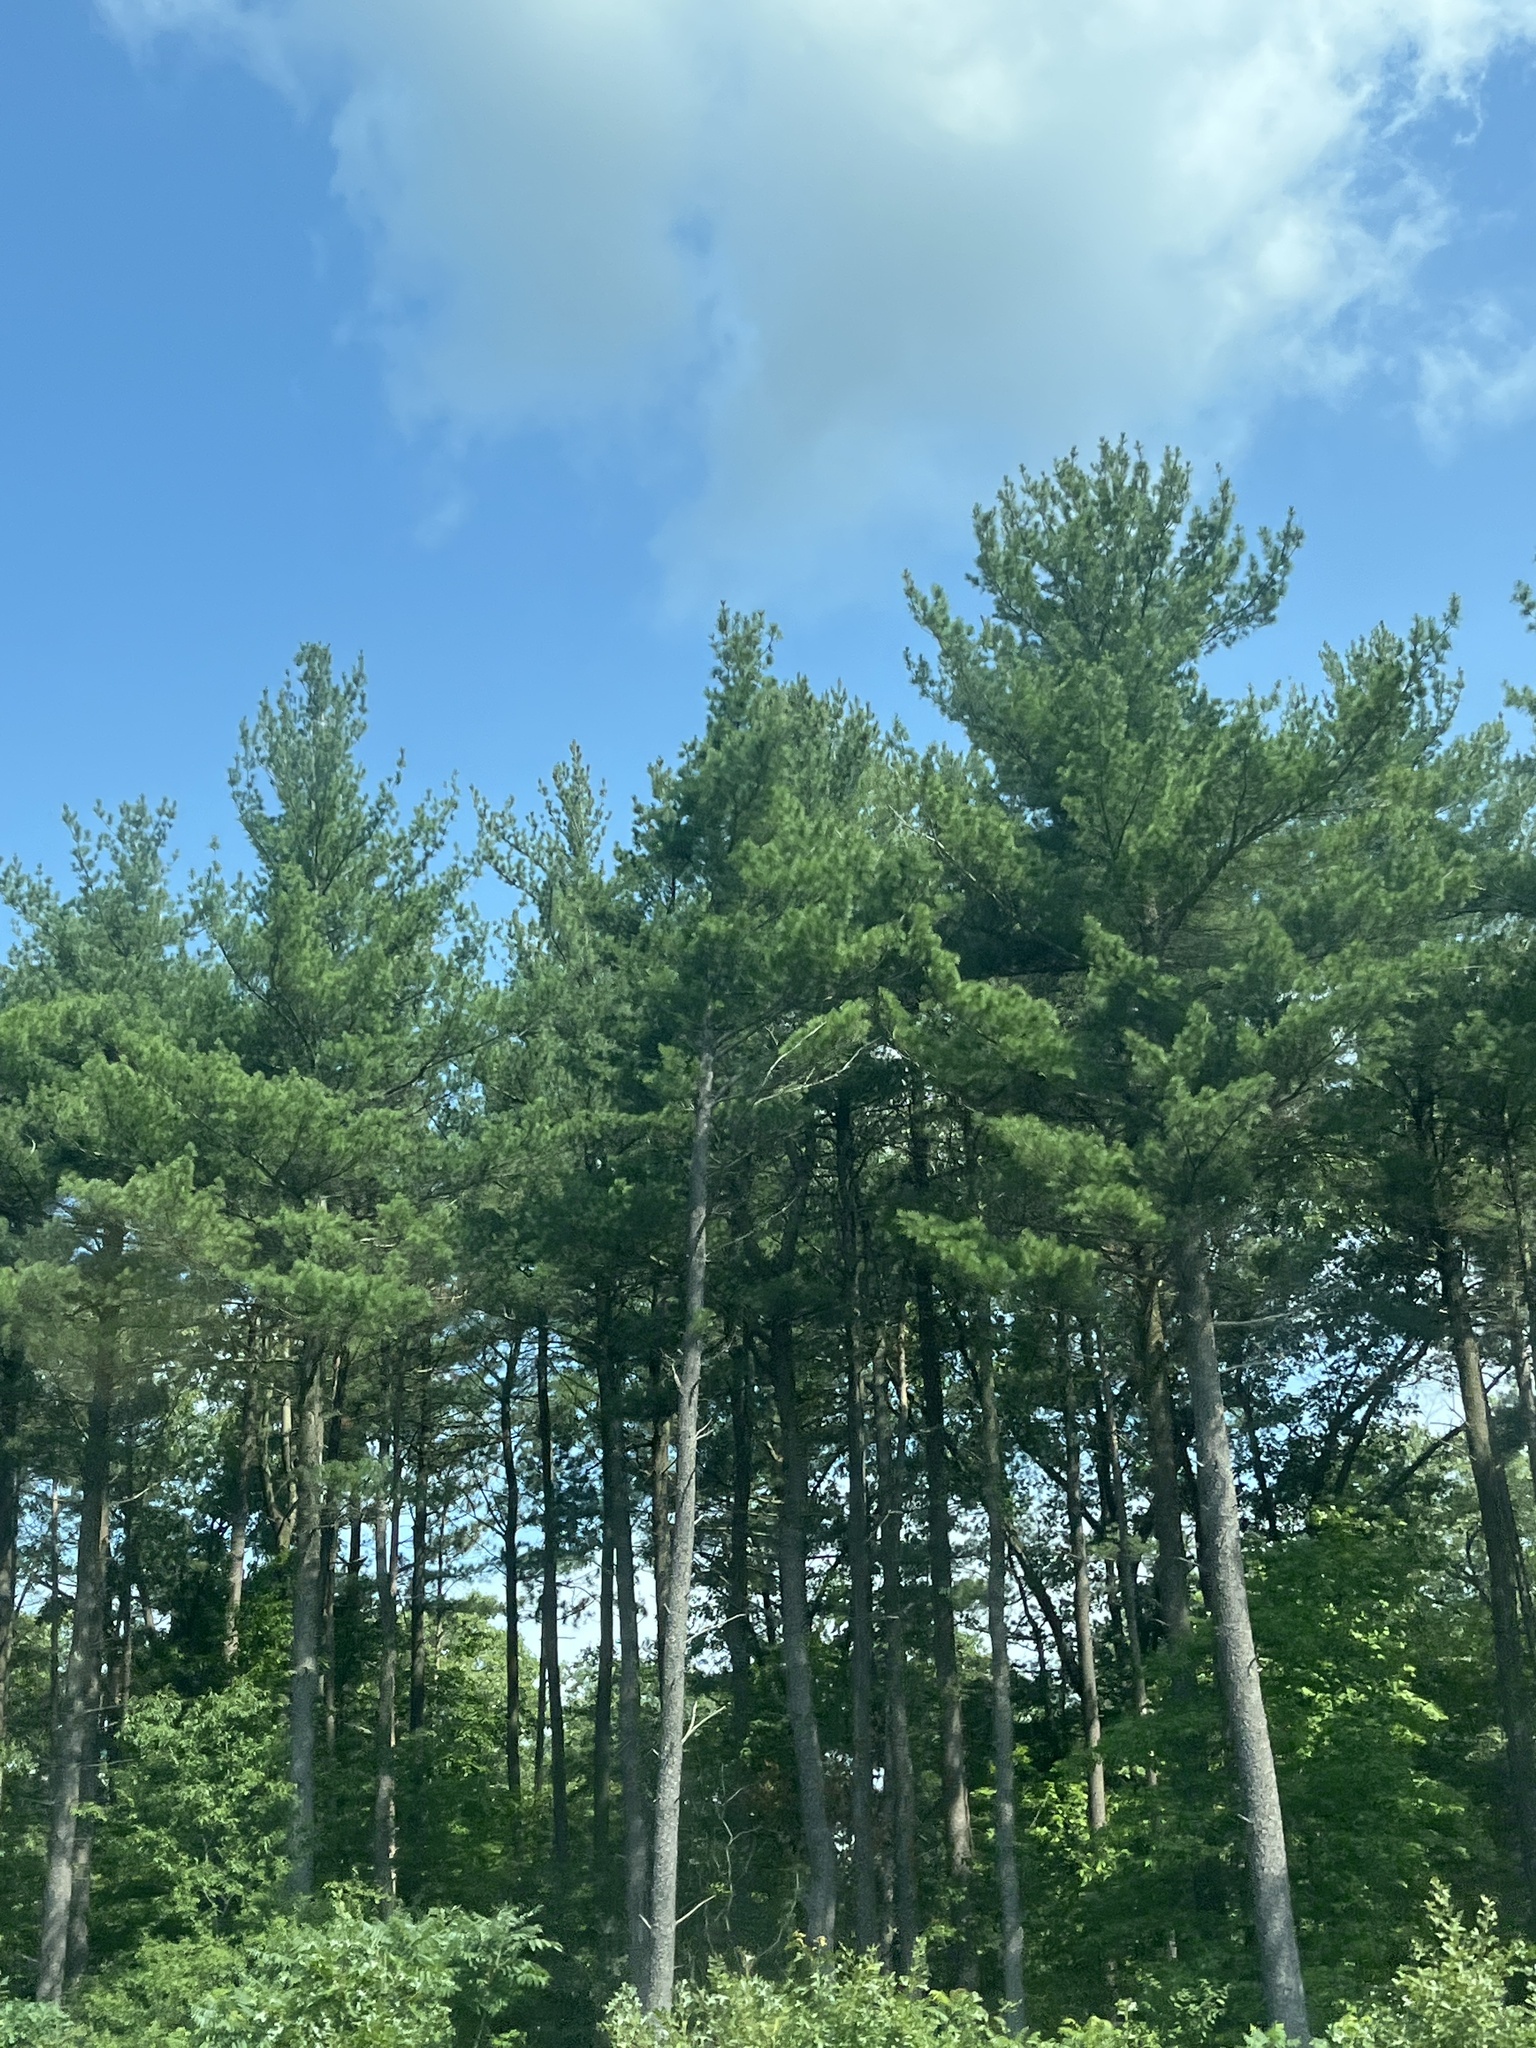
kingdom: Plantae
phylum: Tracheophyta
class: Pinopsida
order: Pinales
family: Pinaceae
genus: Pinus
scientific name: Pinus strobus
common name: Weymouth pine
